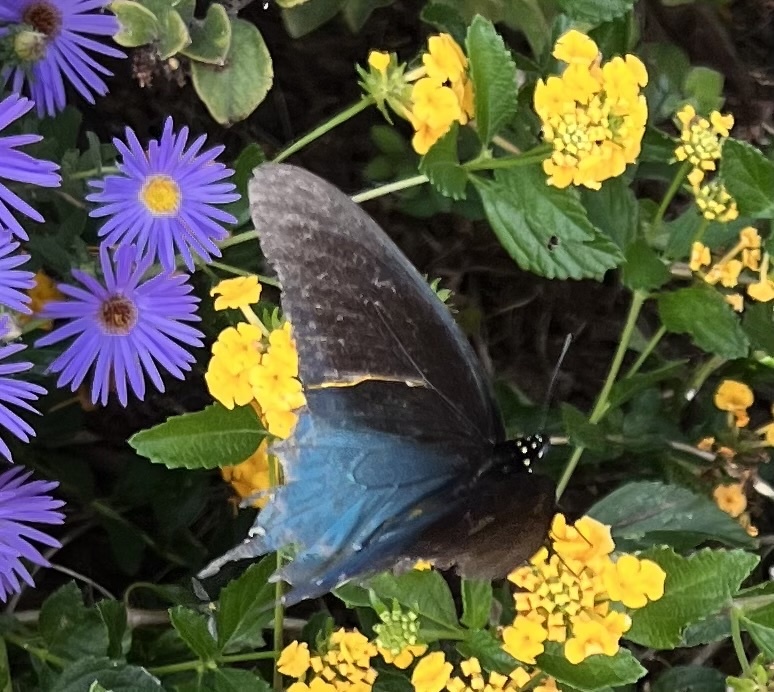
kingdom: Animalia
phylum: Arthropoda
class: Insecta
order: Lepidoptera
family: Papilionidae
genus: Battus
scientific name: Battus philenor
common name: Pipevine swallowtail
